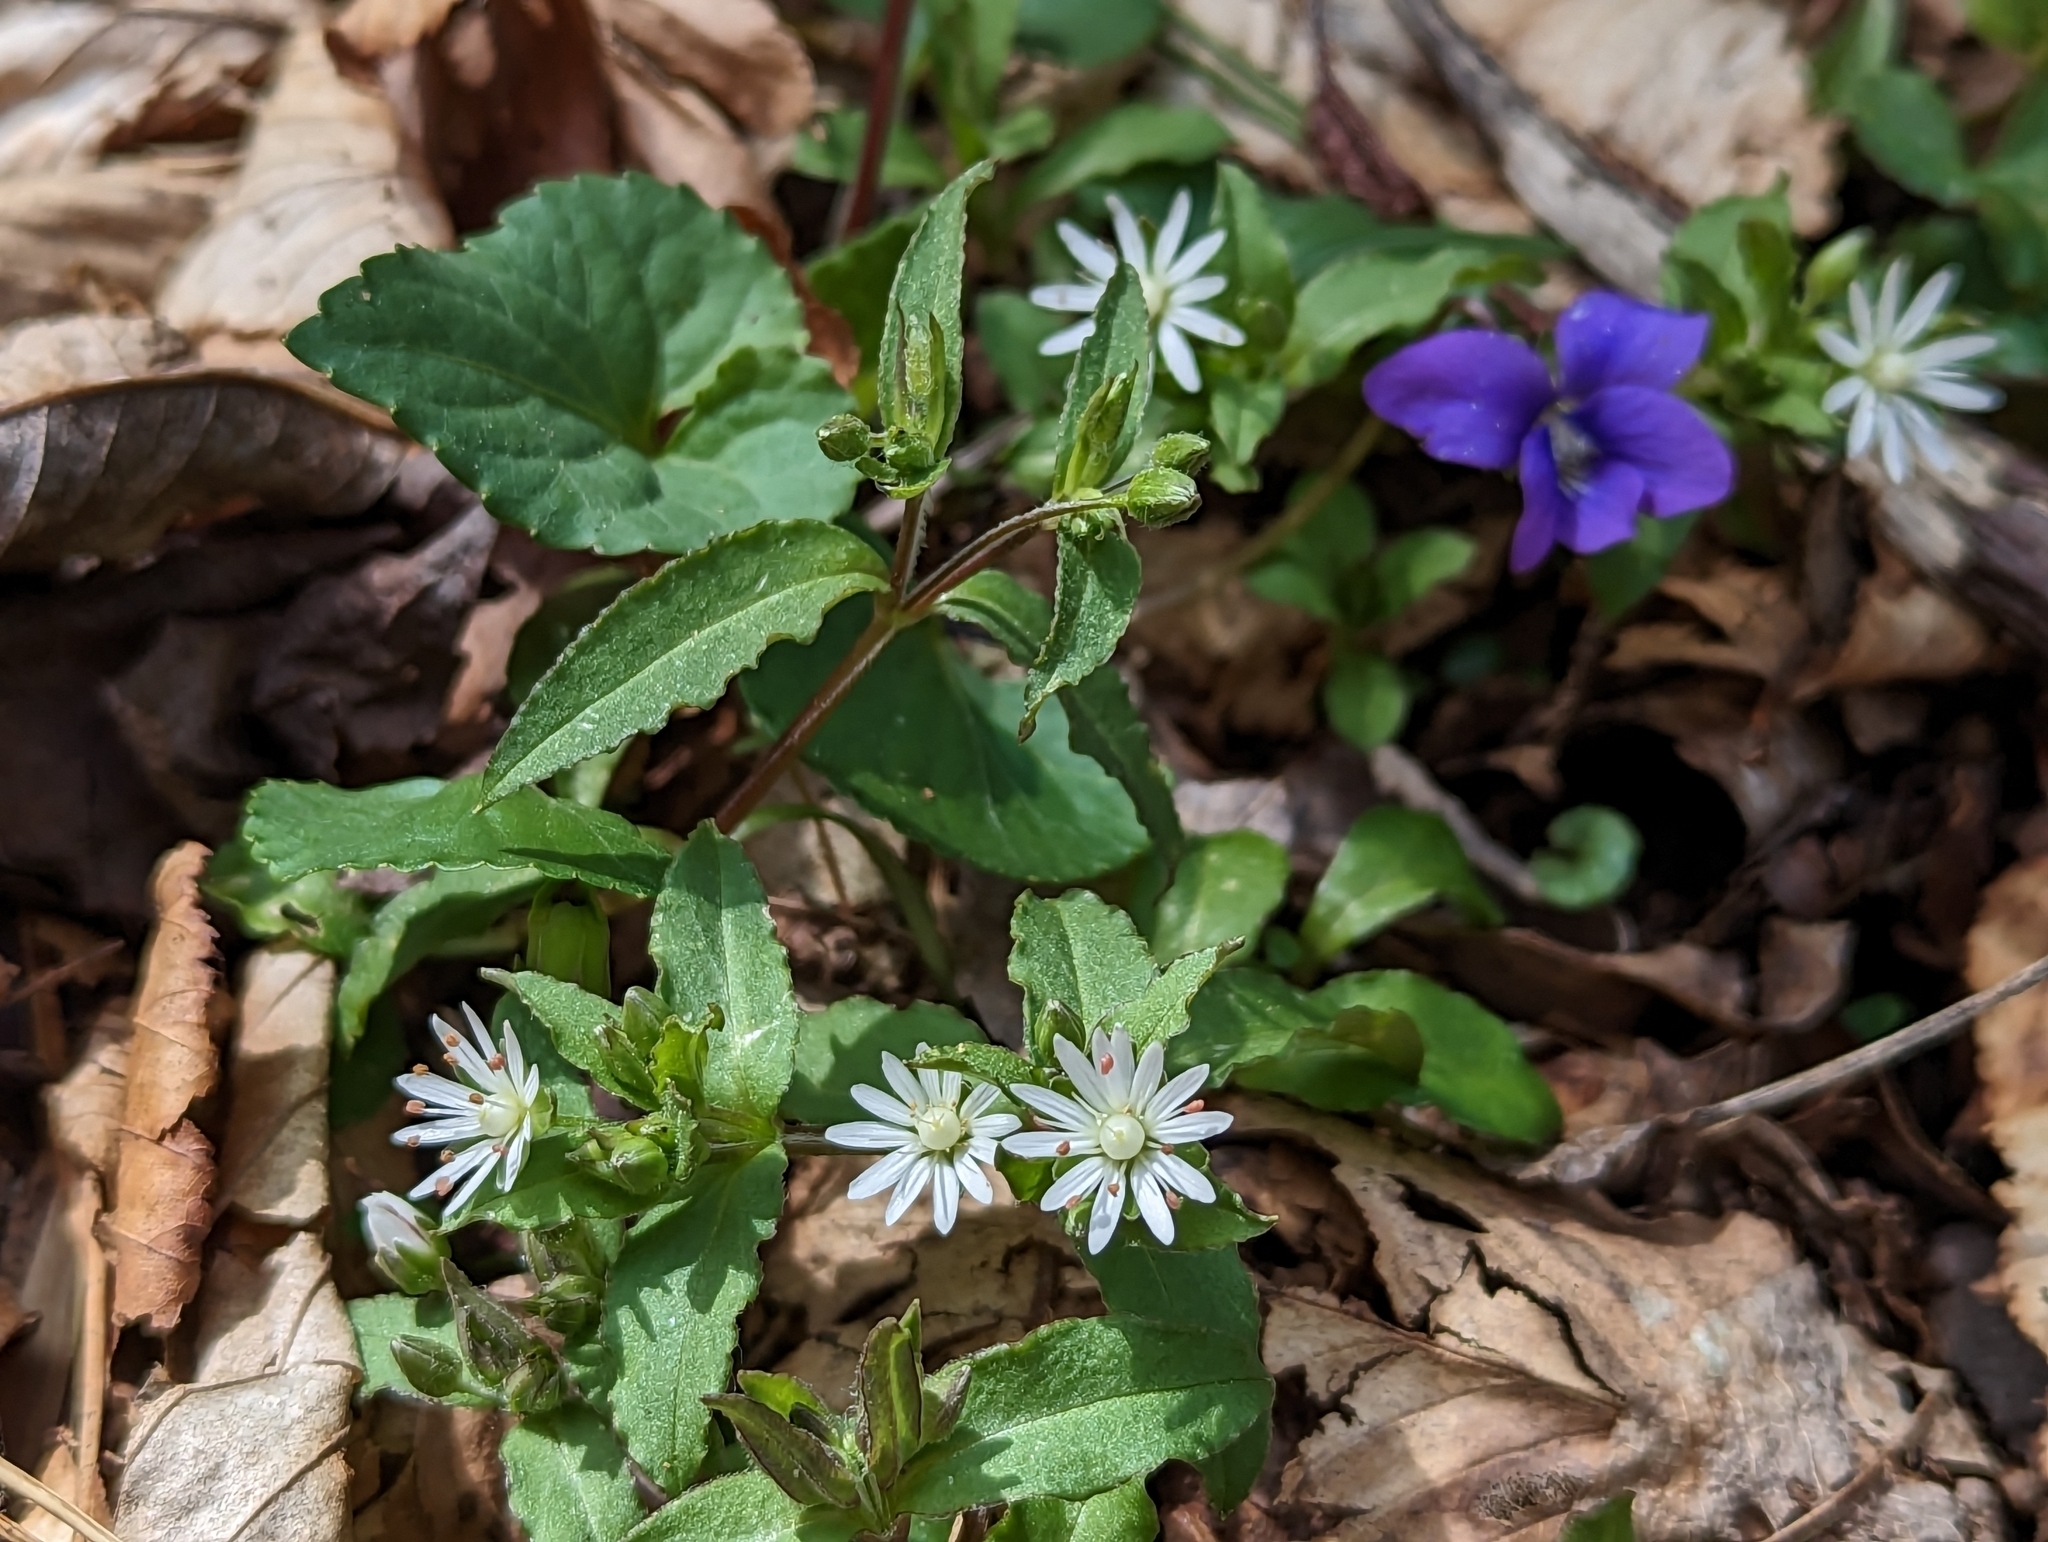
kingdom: Plantae
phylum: Tracheophyta
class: Magnoliopsida
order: Caryophyllales
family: Caryophyllaceae
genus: Stellaria
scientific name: Stellaria pubera
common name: Star chickweed
